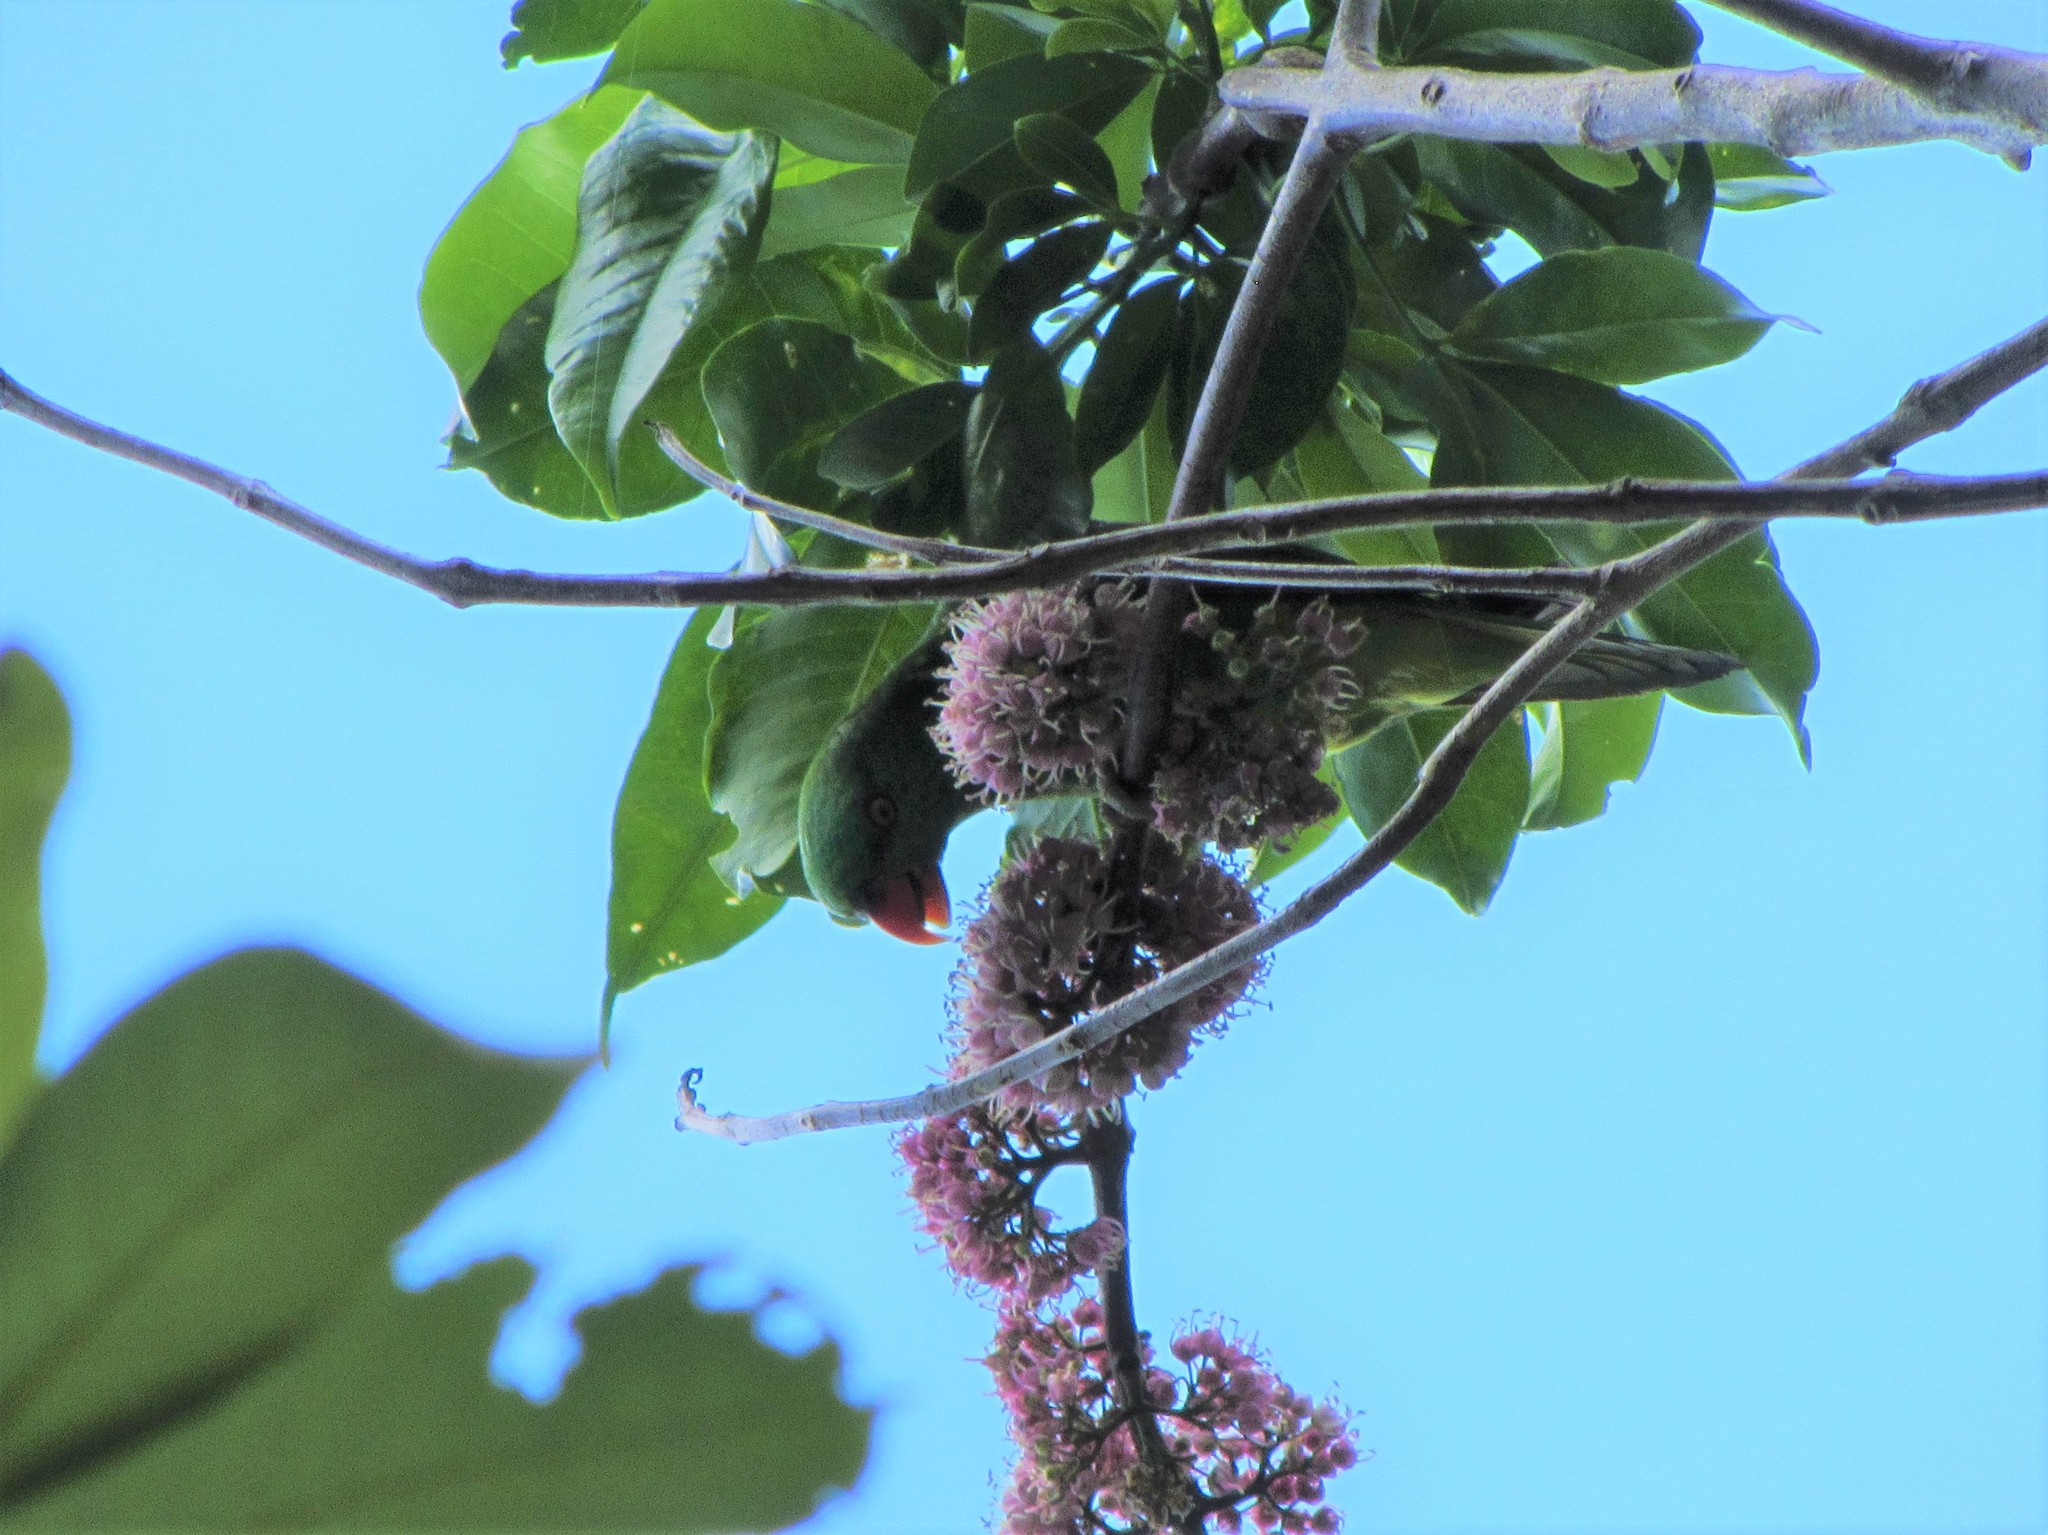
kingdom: Animalia
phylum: Chordata
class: Aves
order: Psittaciformes
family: Psittacidae
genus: Trichoglossus
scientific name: Trichoglossus chlorolepidotus
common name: Scaly-breasted lorikeet
